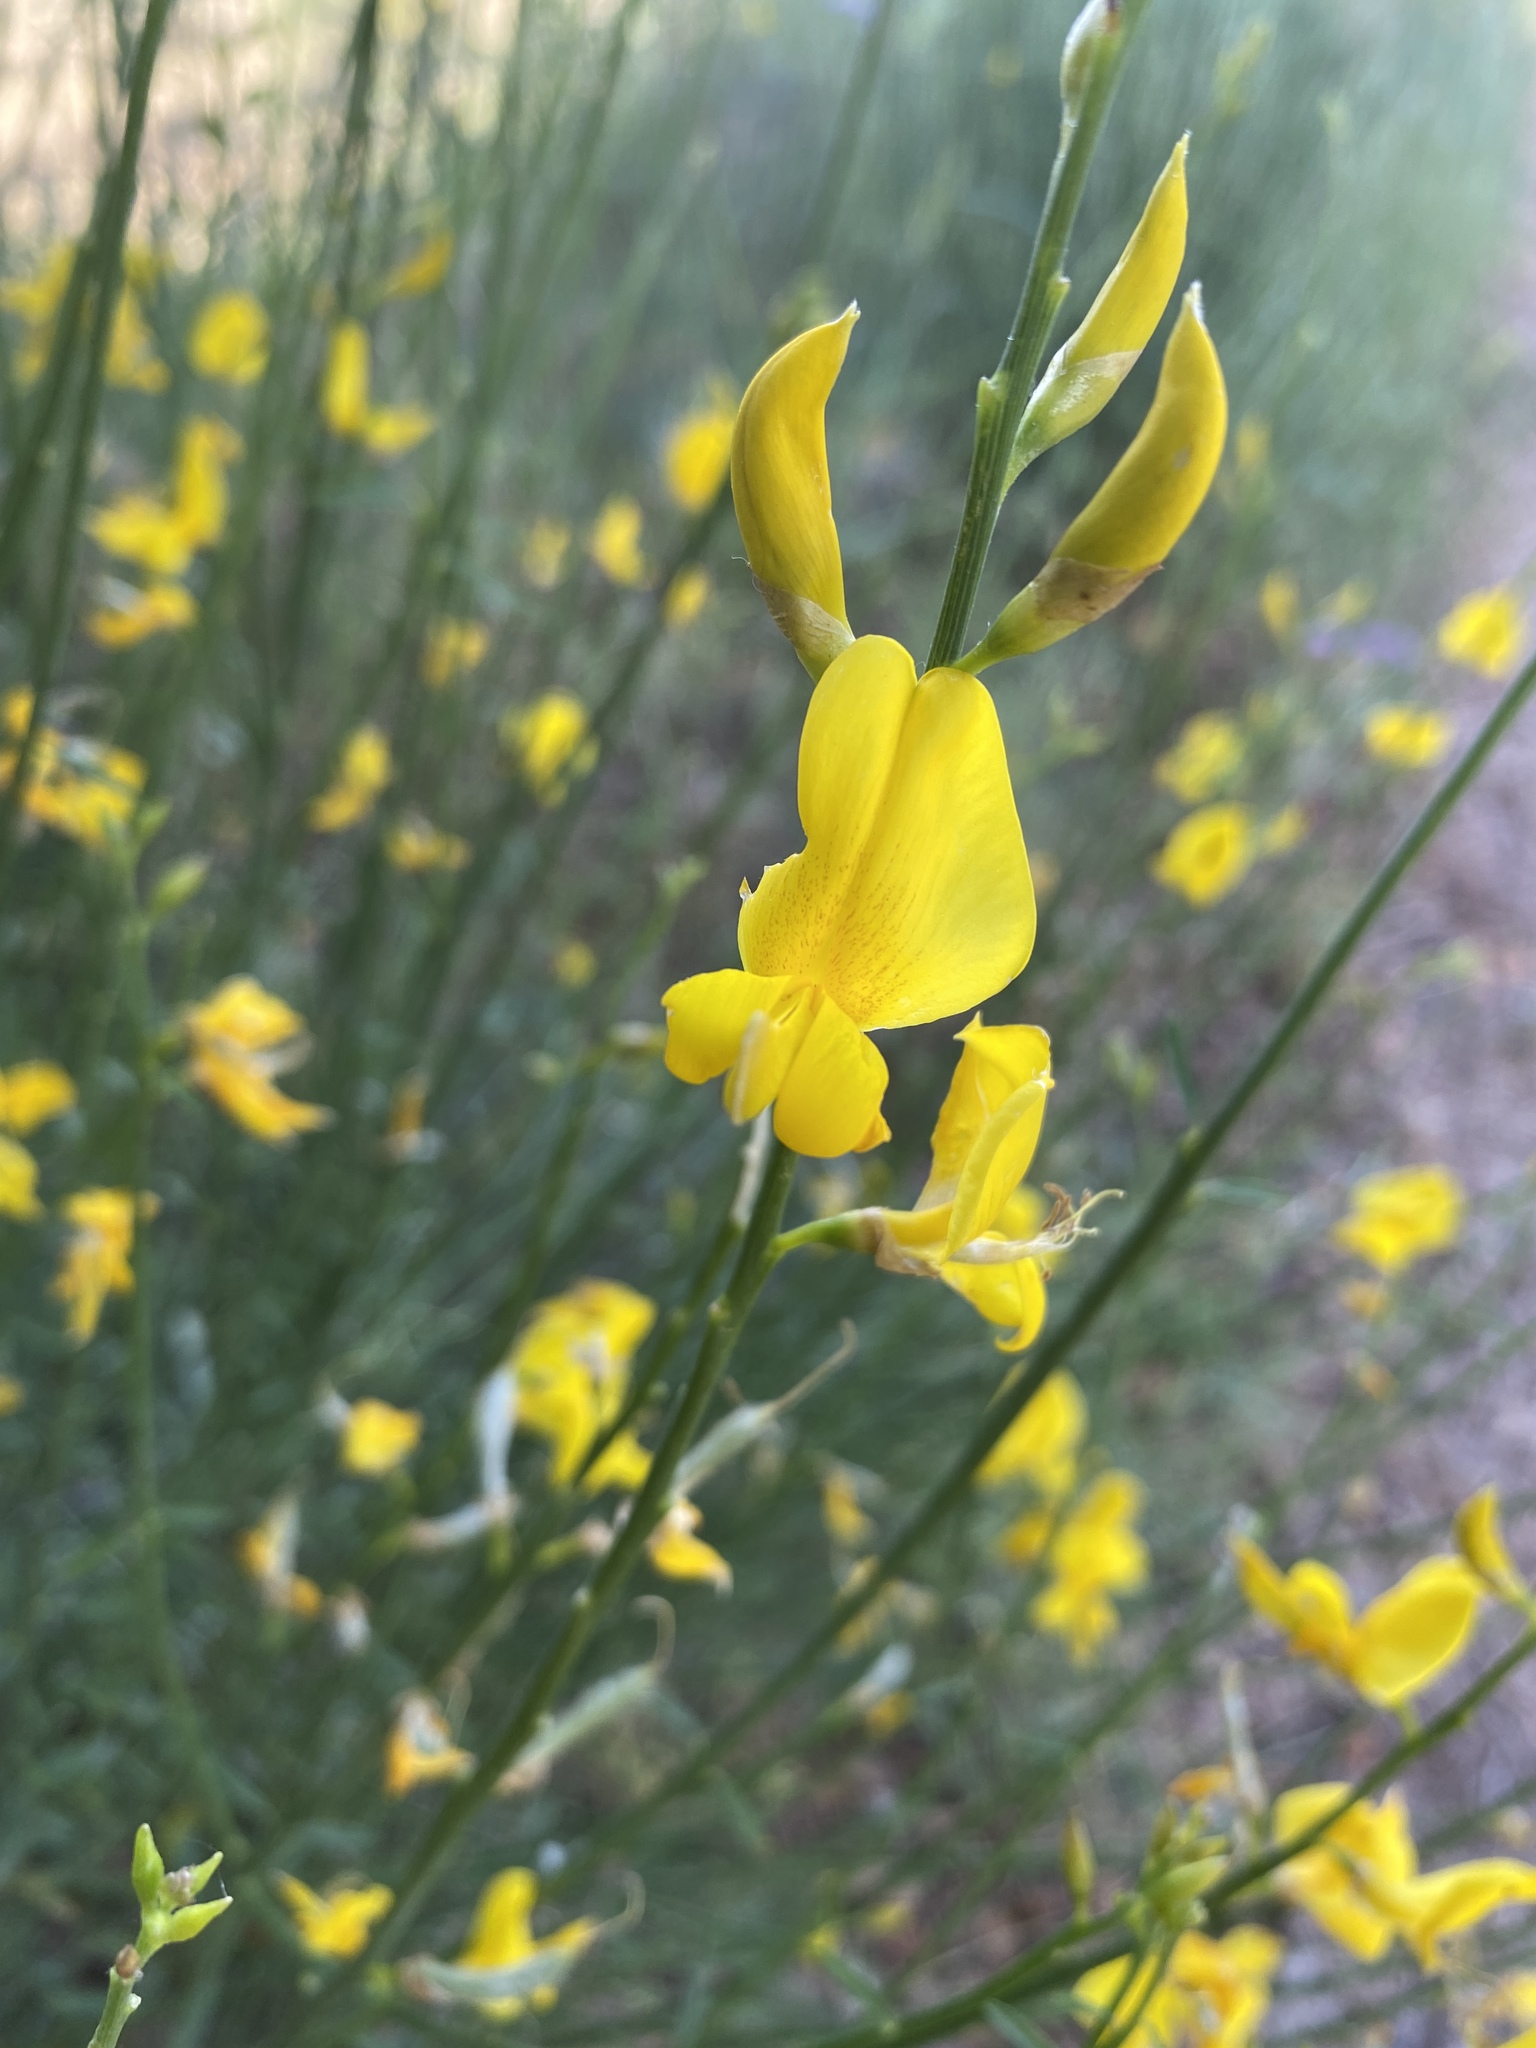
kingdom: Plantae
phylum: Tracheophyta
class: Magnoliopsida
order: Fabales
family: Fabaceae
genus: Spartium
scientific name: Spartium junceum
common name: Spanish broom
